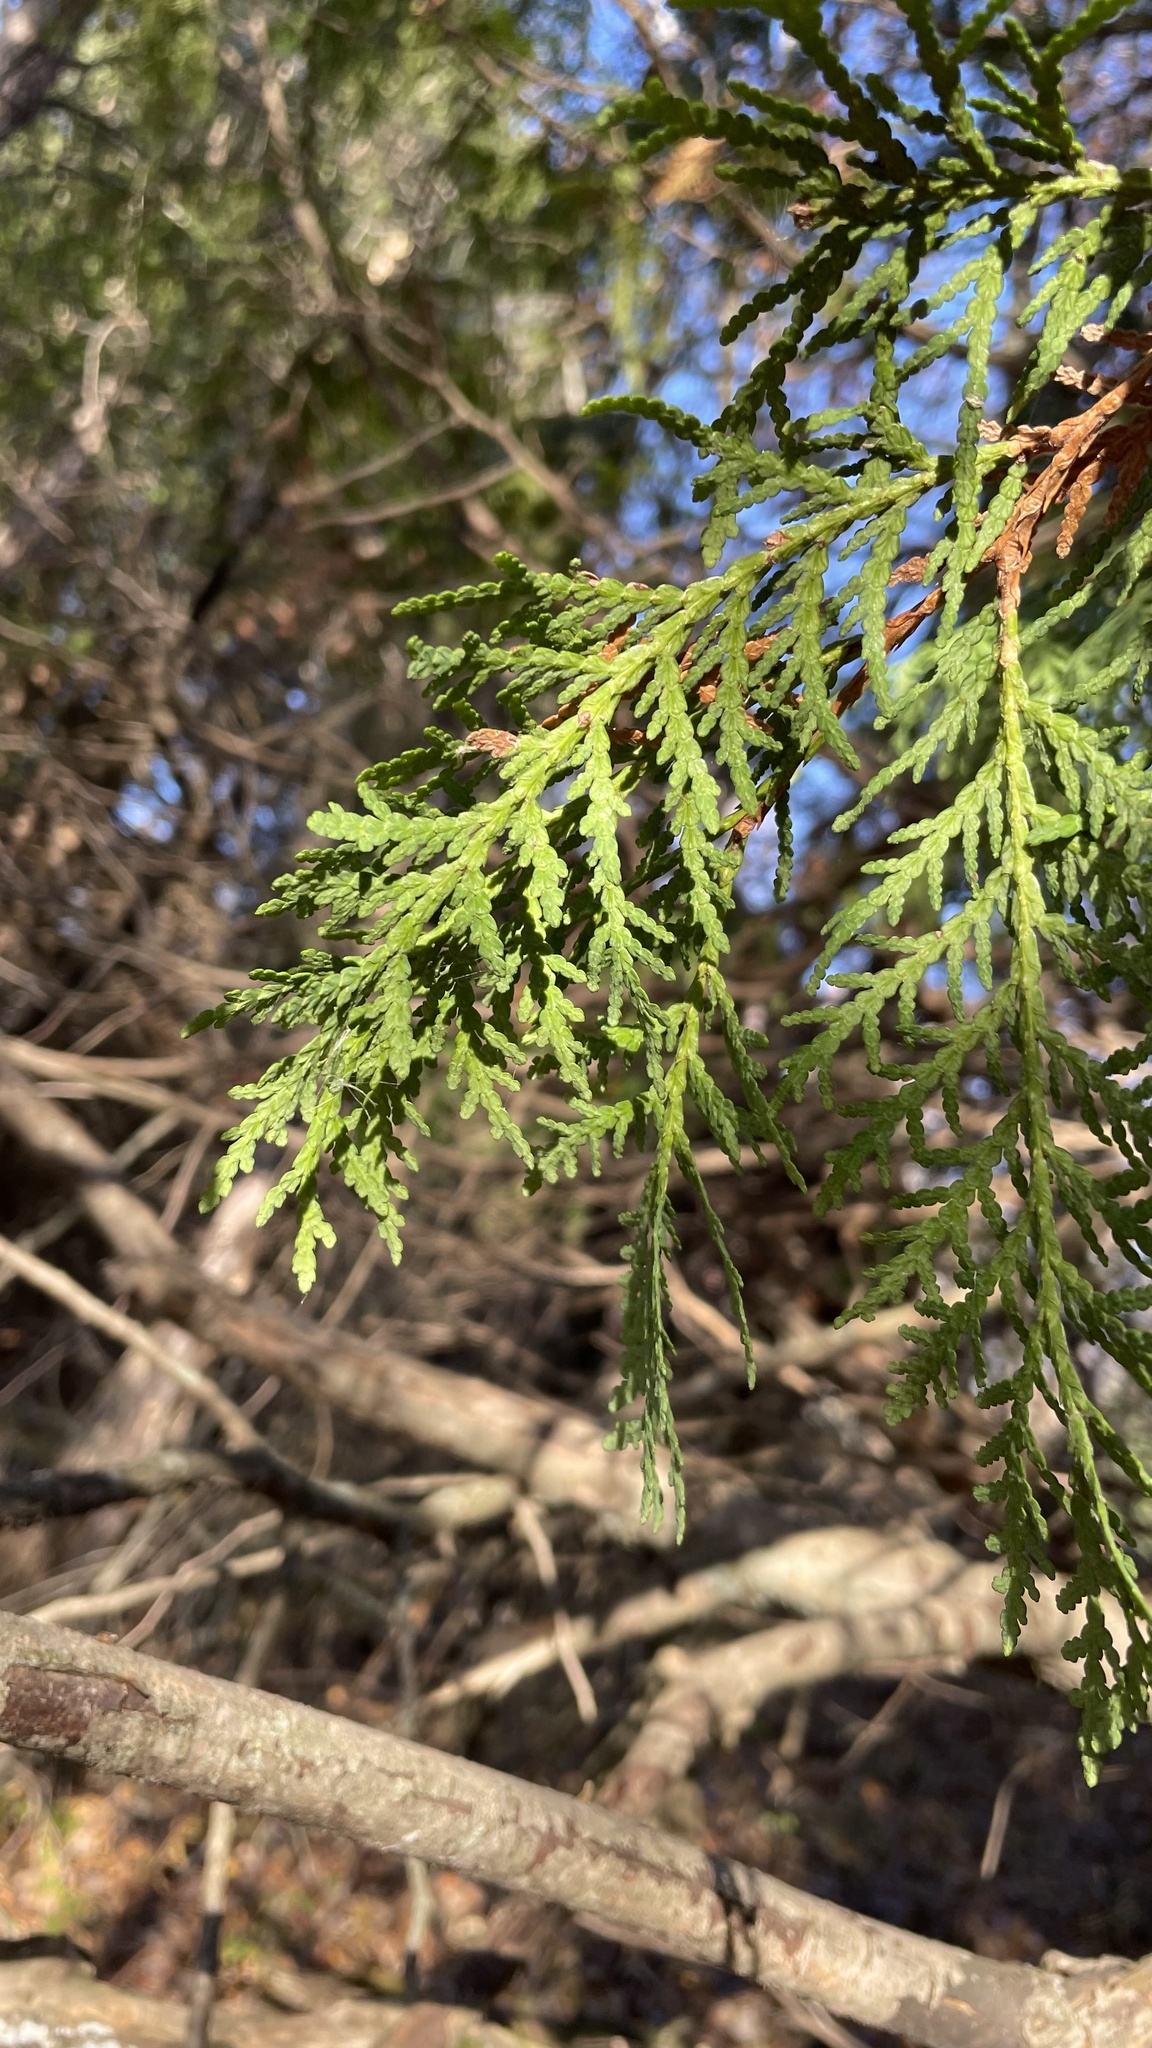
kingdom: Plantae
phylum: Tracheophyta
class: Pinopsida
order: Pinales
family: Cupressaceae
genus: Thuja
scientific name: Thuja occidentalis
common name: Northern white-cedar
